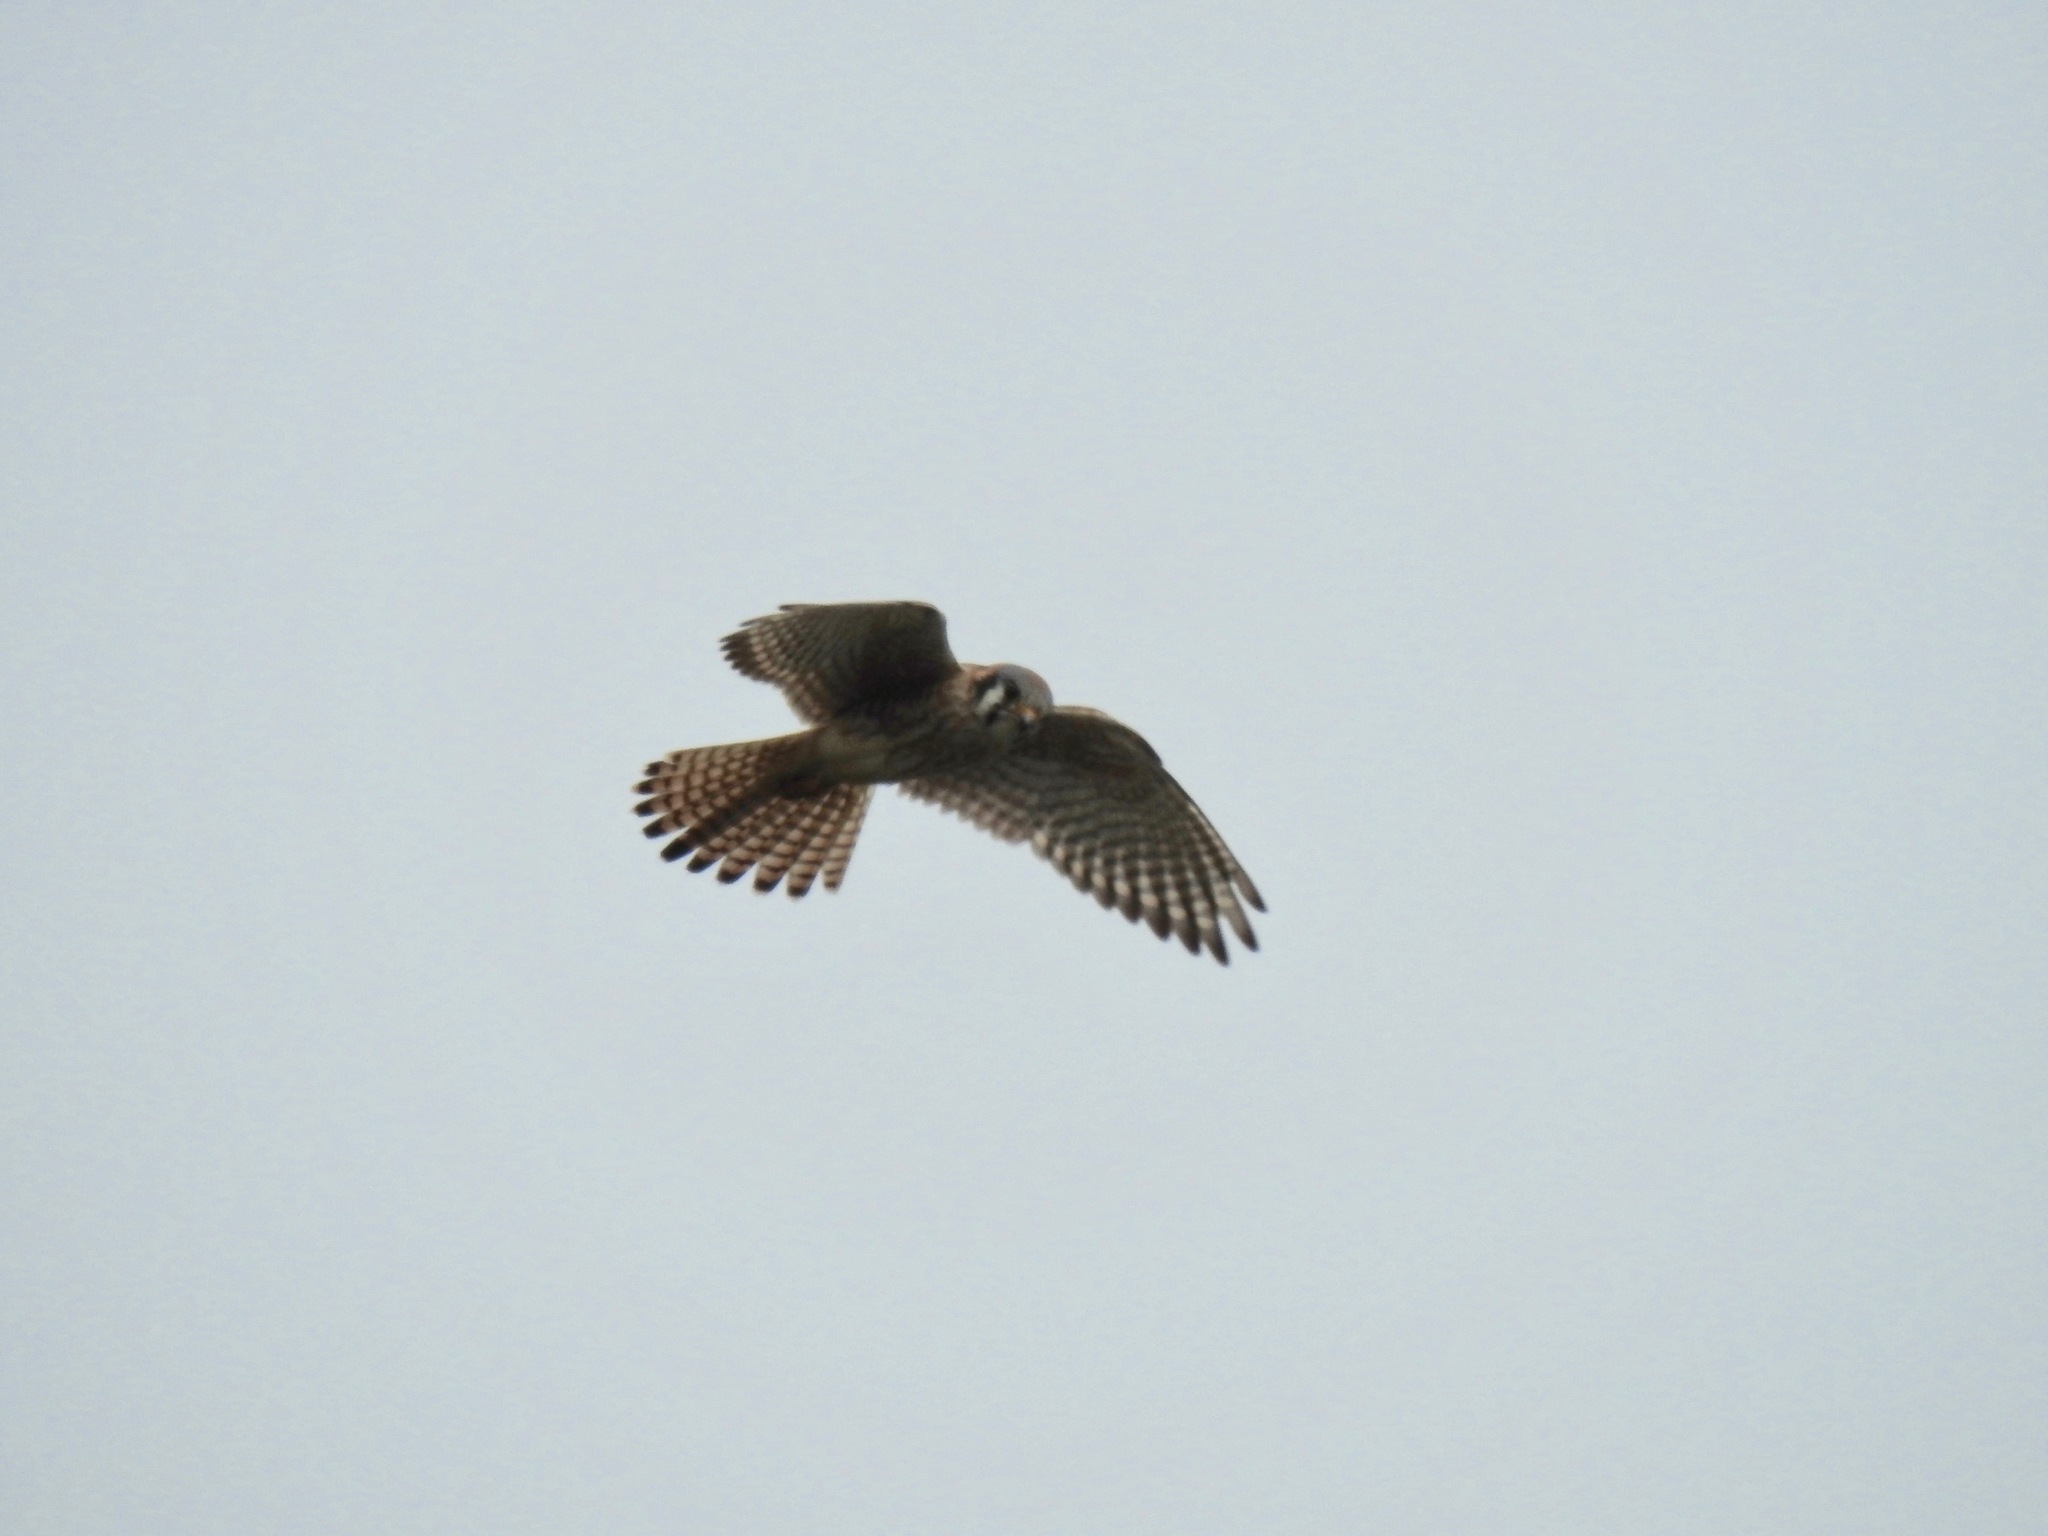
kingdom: Animalia
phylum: Chordata
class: Aves
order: Falconiformes
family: Falconidae
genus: Falco
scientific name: Falco sparverius
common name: American kestrel
